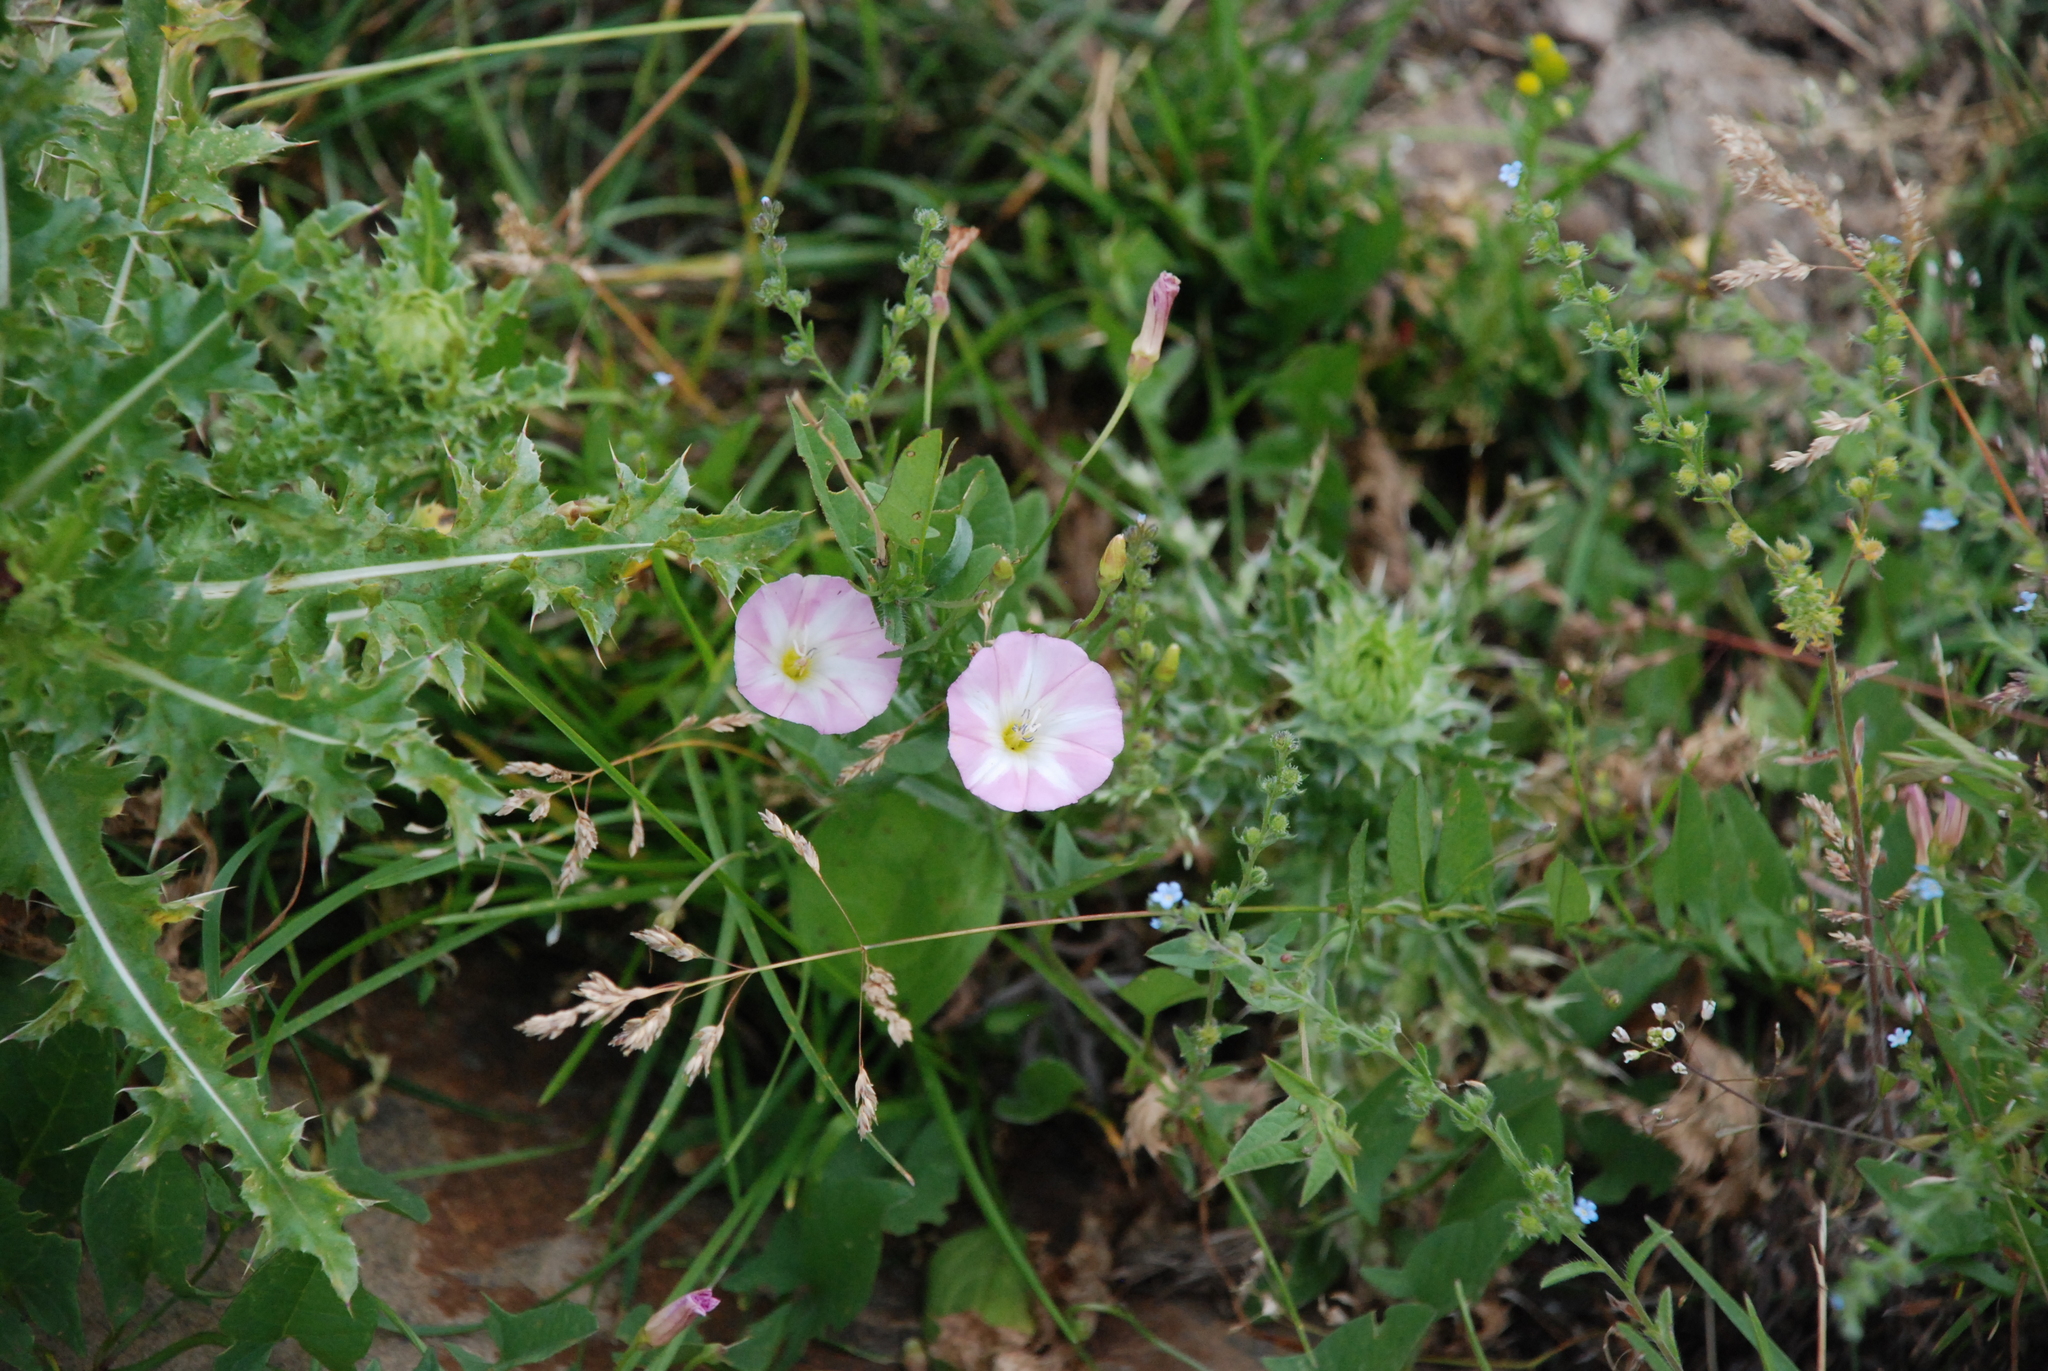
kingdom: Plantae
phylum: Tracheophyta
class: Magnoliopsida
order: Solanales
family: Convolvulaceae
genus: Convolvulus
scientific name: Convolvulus arvensis
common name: Field bindweed
